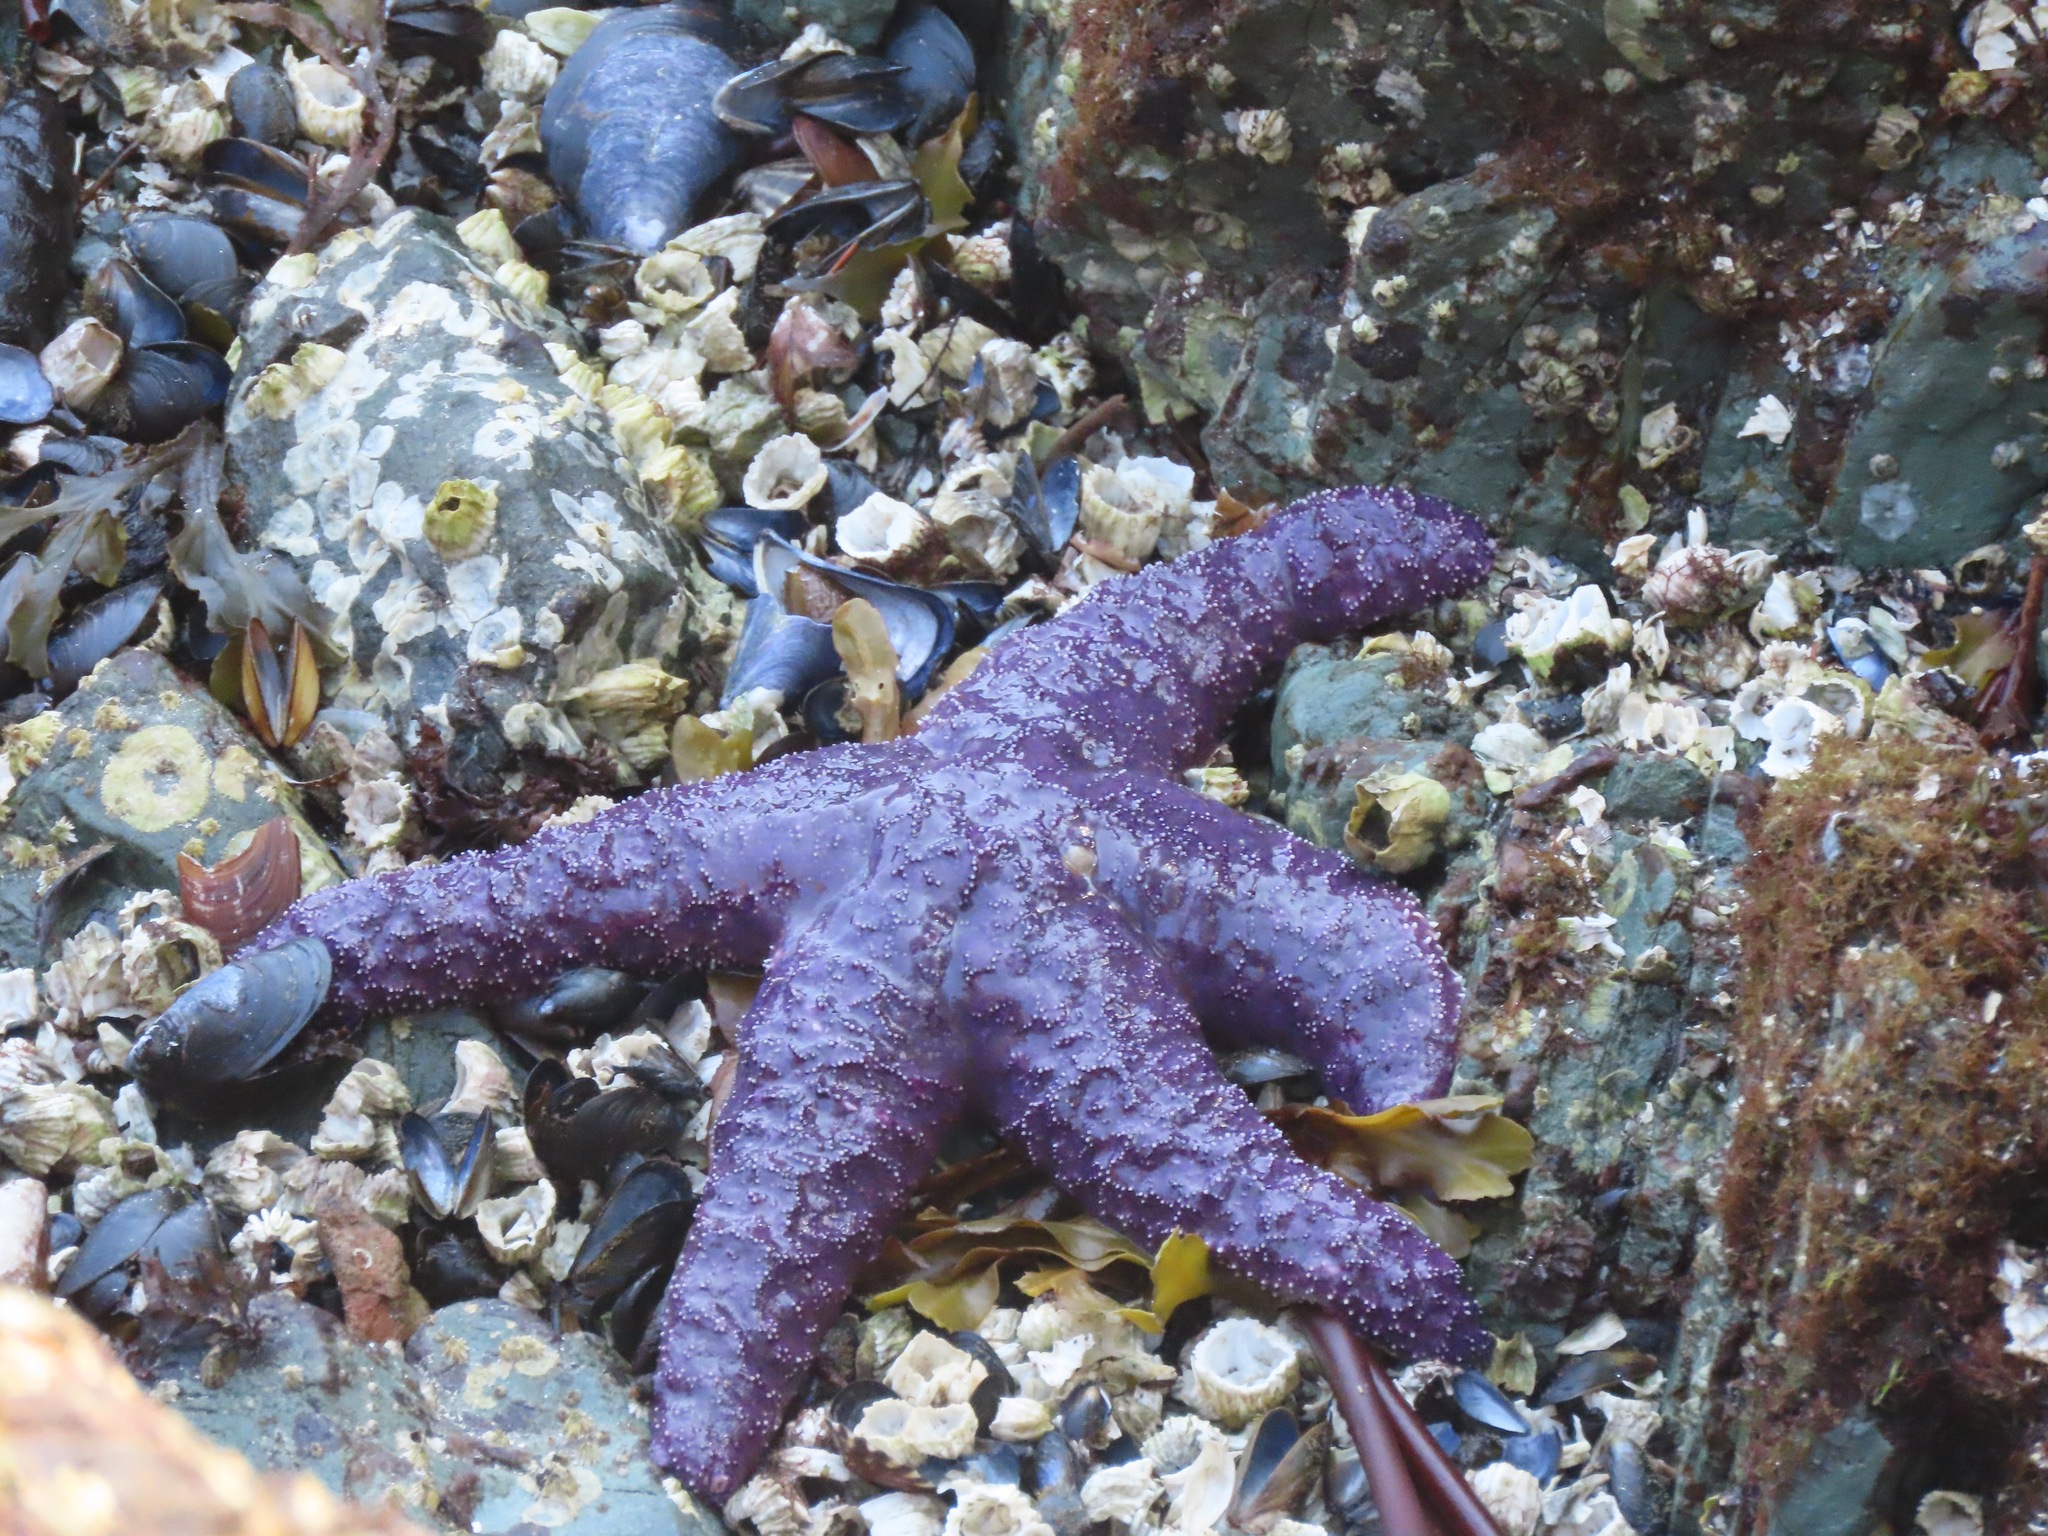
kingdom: Animalia
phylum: Echinodermata
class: Asteroidea
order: Forcipulatida
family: Asteriidae
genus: Pisaster
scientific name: Pisaster ochraceus
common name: Ochre stars
